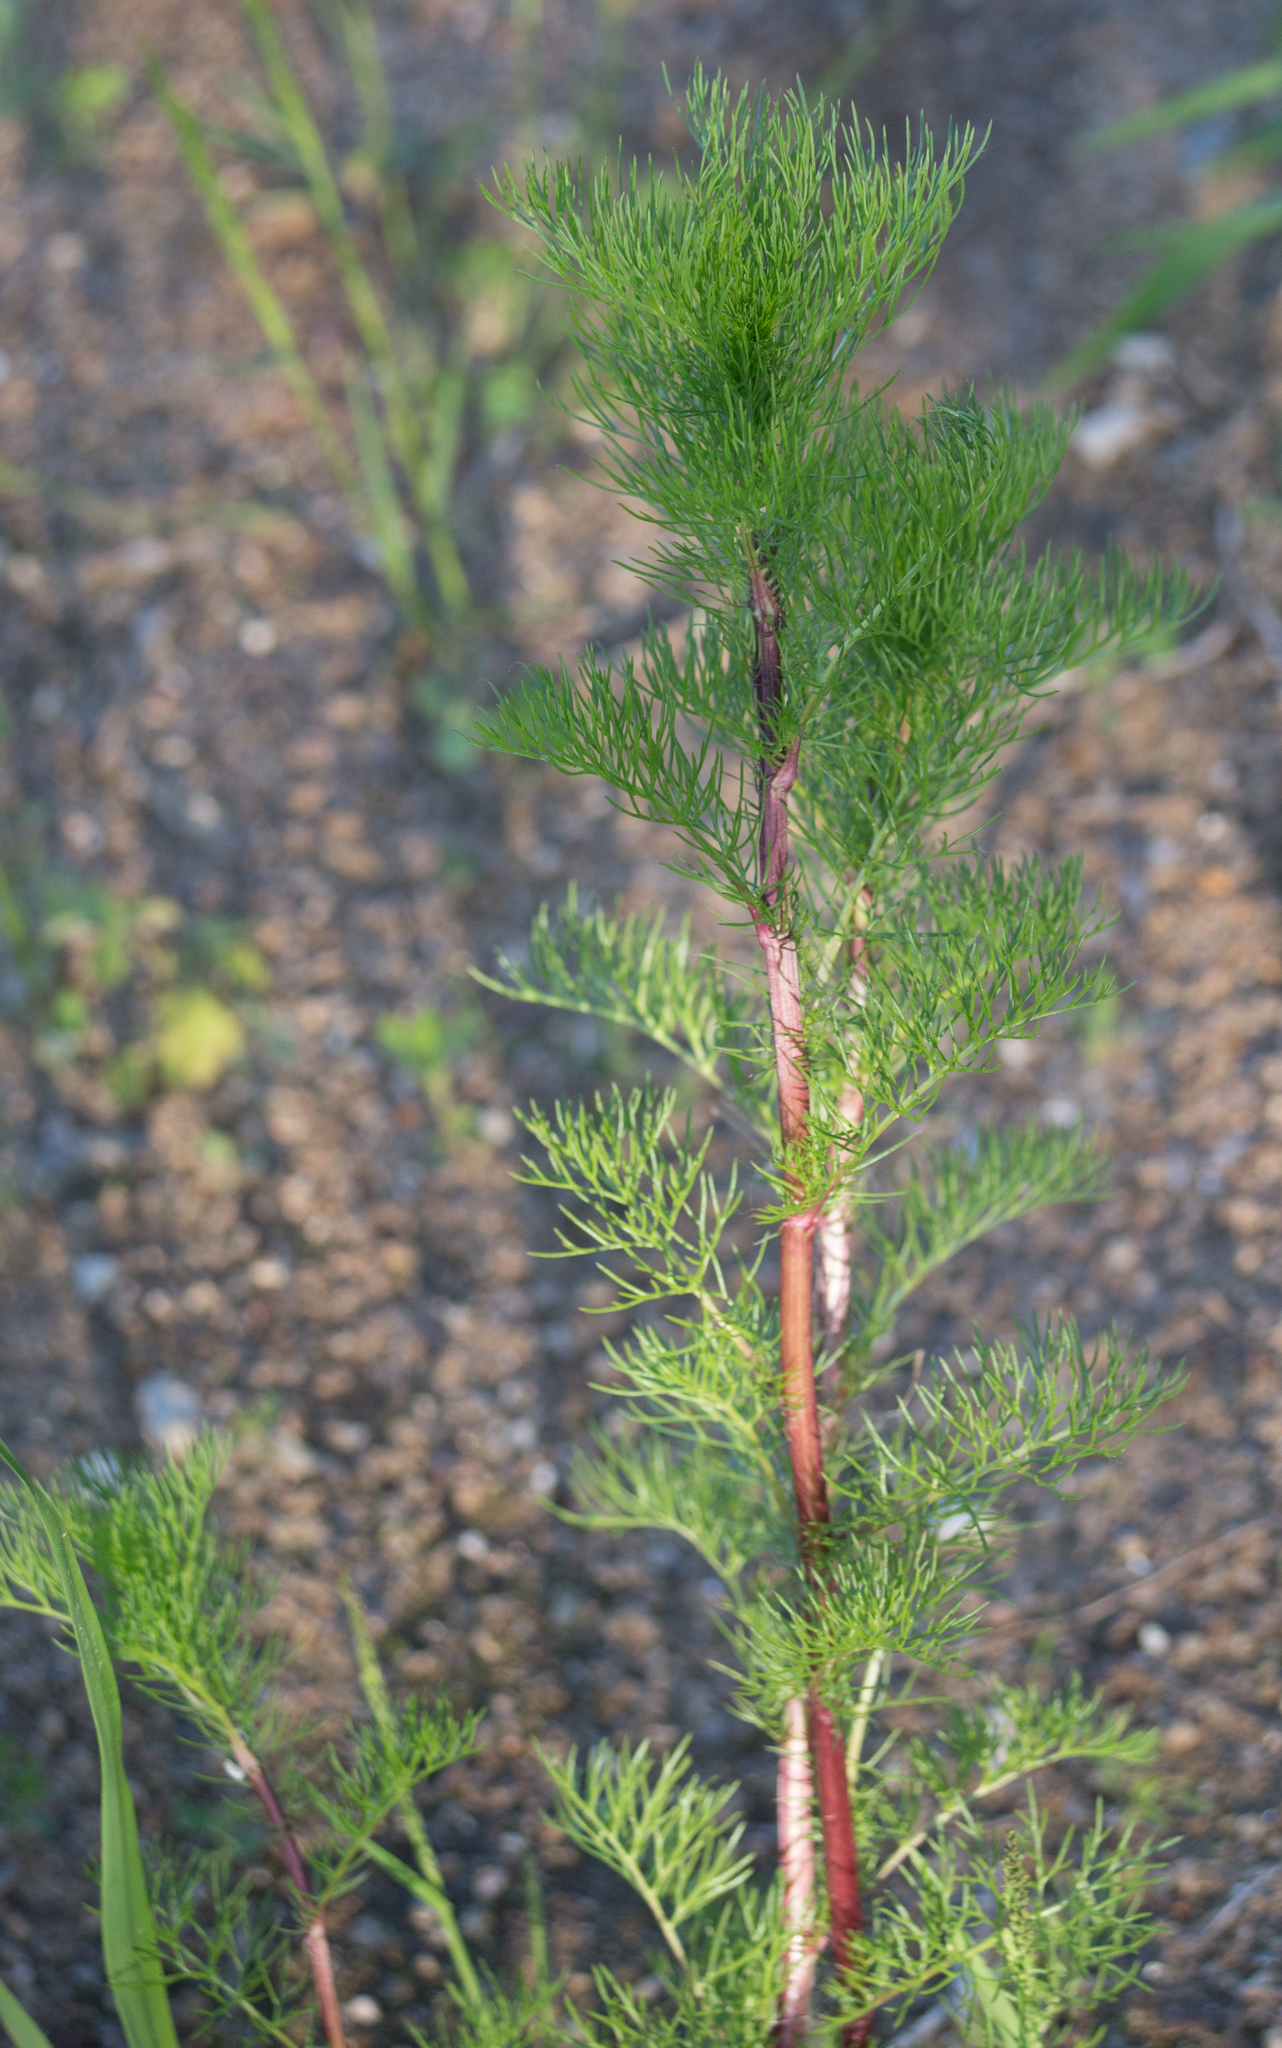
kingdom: Plantae
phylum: Tracheophyta
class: Magnoliopsida
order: Asterales
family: Asteraceae
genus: Tripleurospermum
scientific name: Tripleurospermum inodorum
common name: Scentless mayweed
